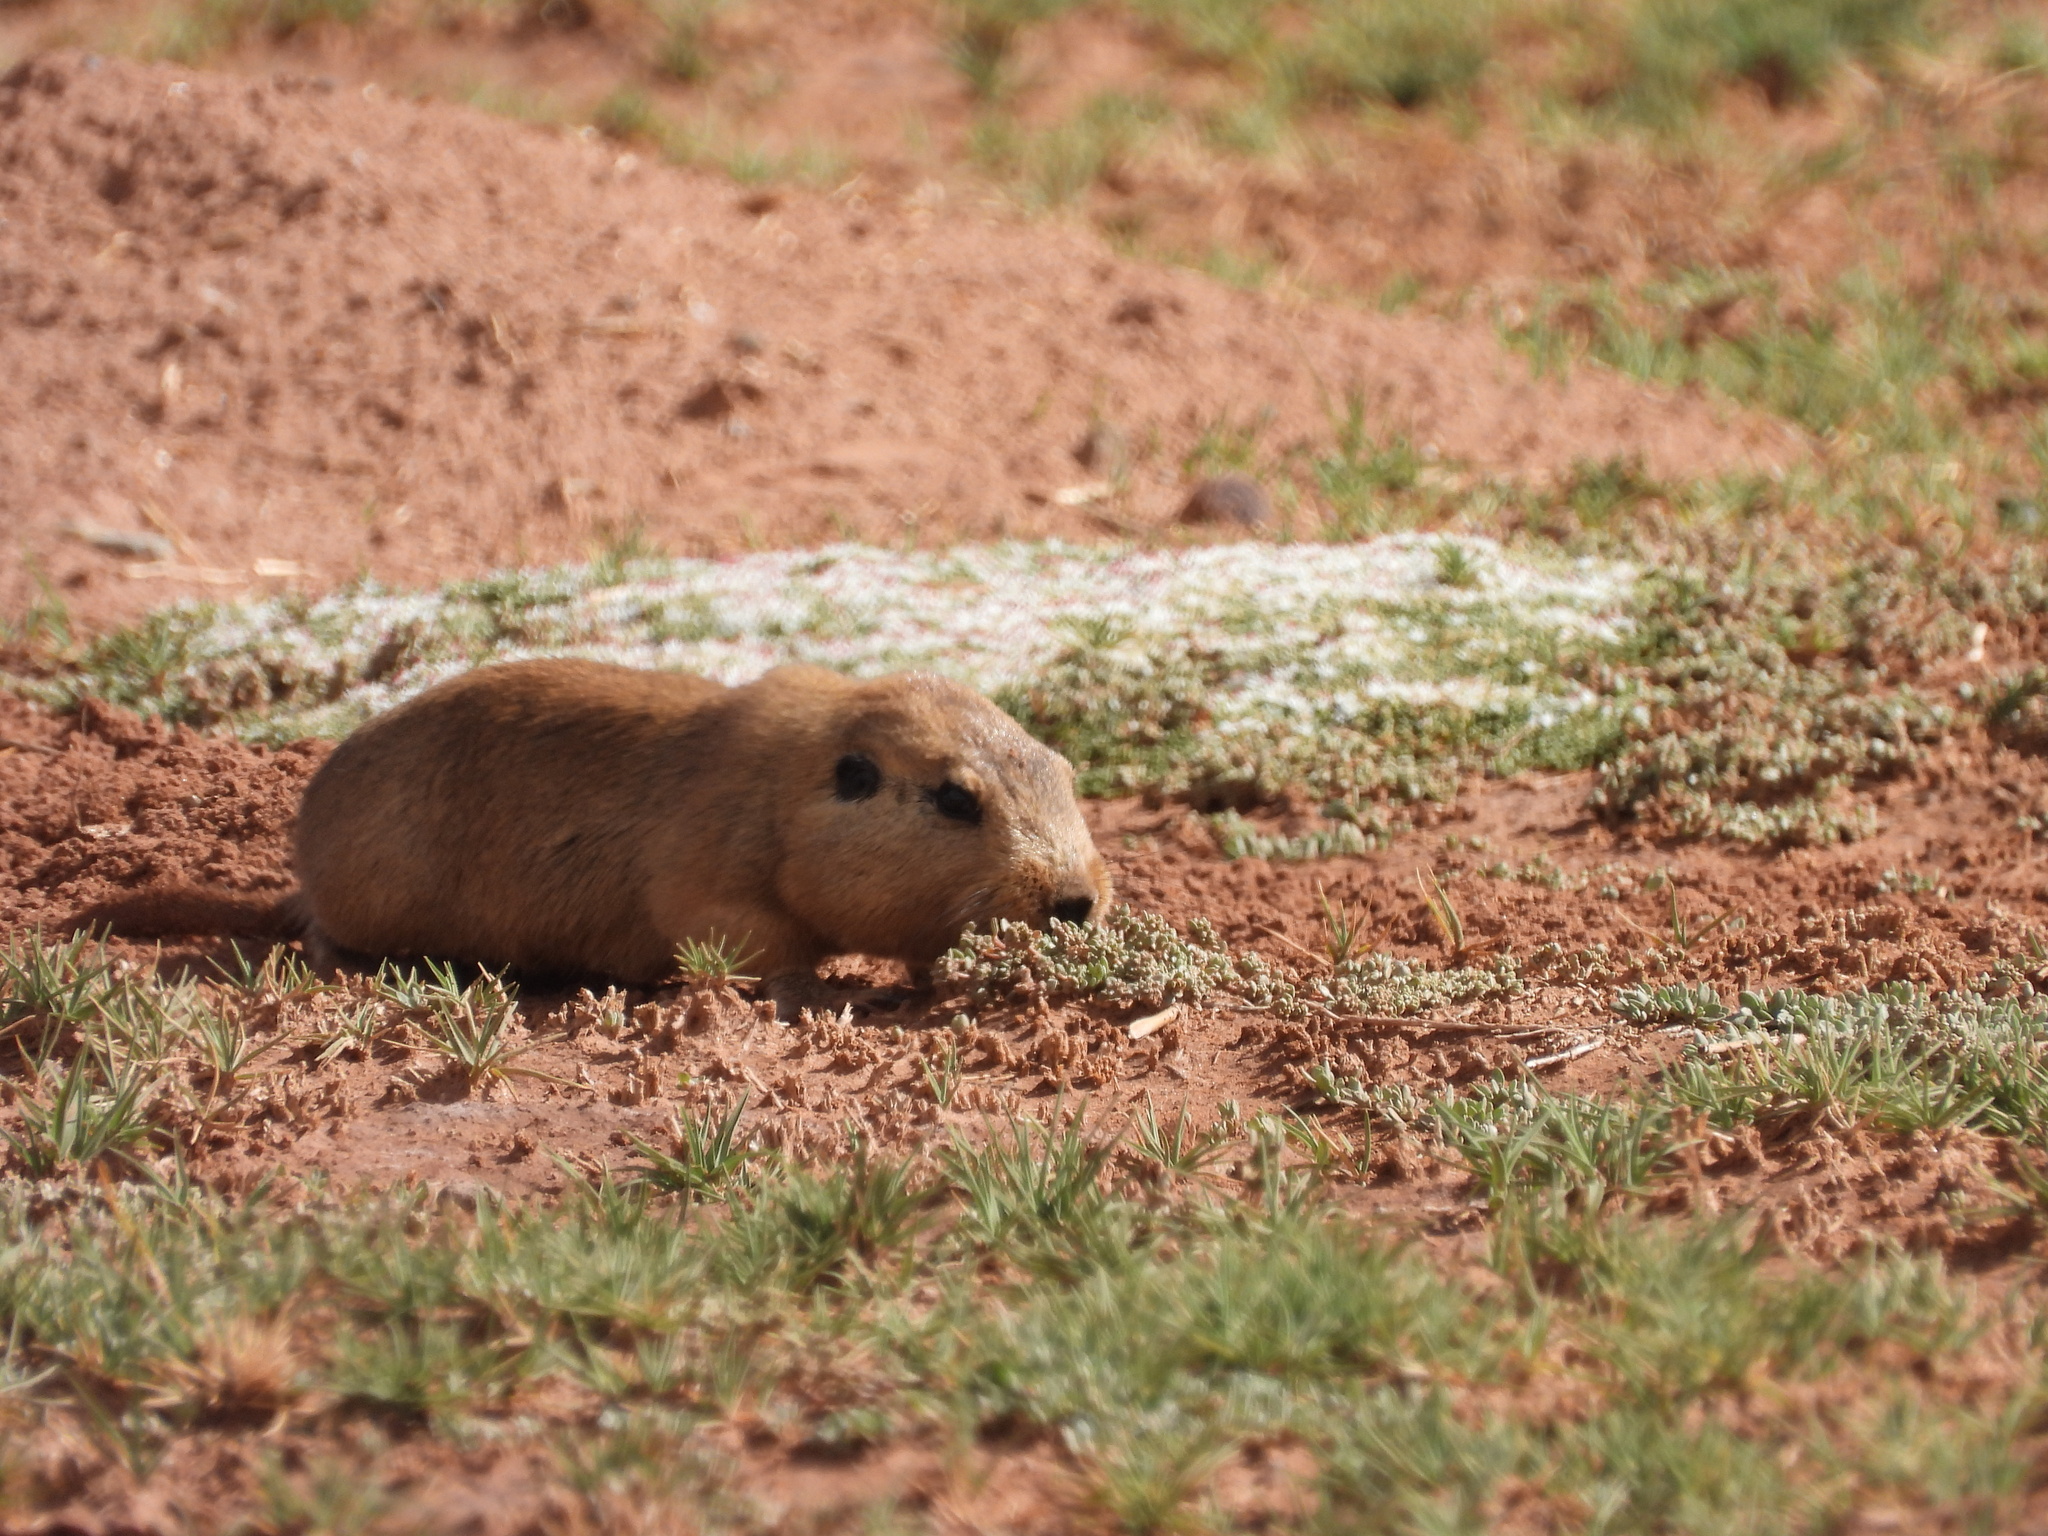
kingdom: Animalia
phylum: Chordata
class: Mammalia
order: Rodentia
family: Ctenomyidae
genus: Ctenomys
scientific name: Ctenomys opimus
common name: Highland tuco-tuco
